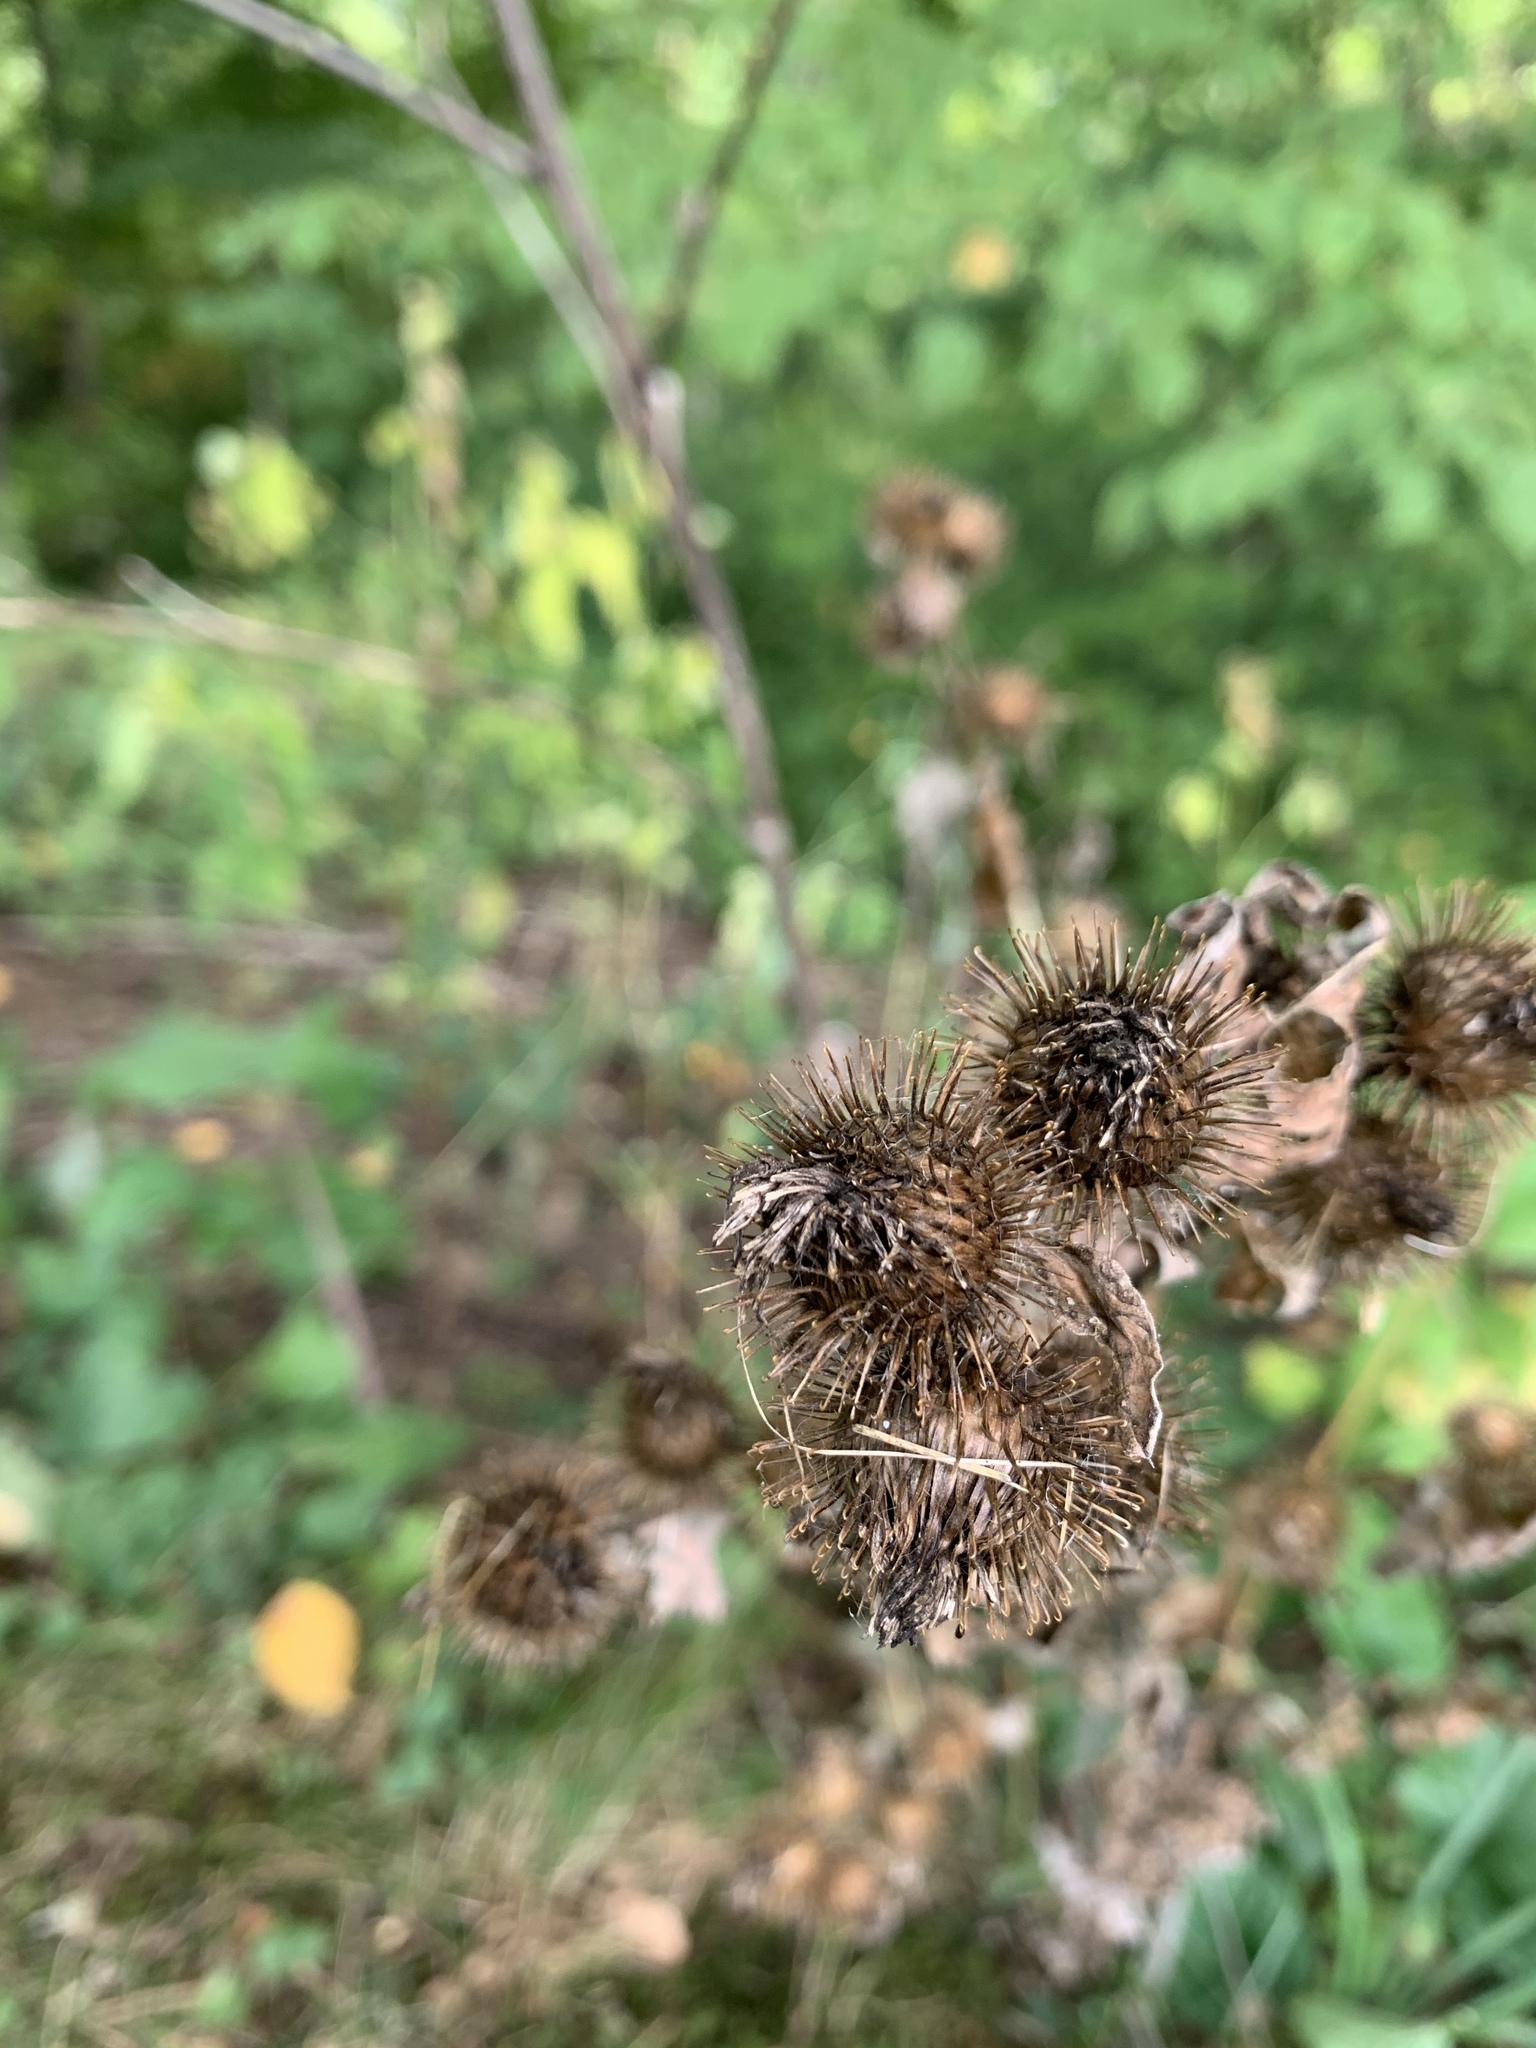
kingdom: Plantae
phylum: Tracheophyta
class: Magnoliopsida
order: Asterales
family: Asteraceae
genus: Arctium
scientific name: Arctium minus
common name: Lesser burdock
